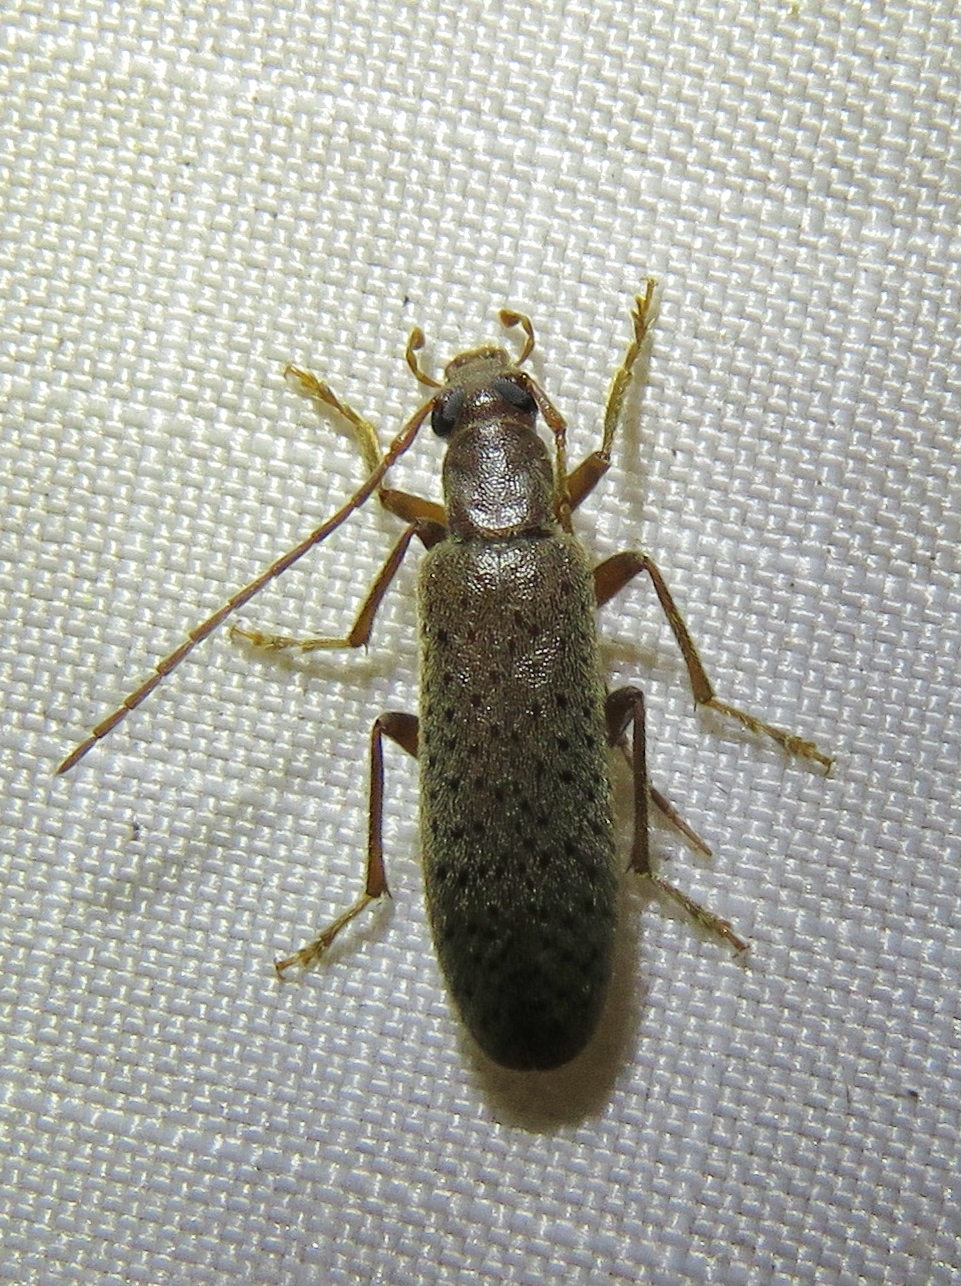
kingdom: Animalia
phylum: Arthropoda
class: Insecta
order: Coleoptera
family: Oedemeridae
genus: Sparedrus
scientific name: Sparedrus aspersus
